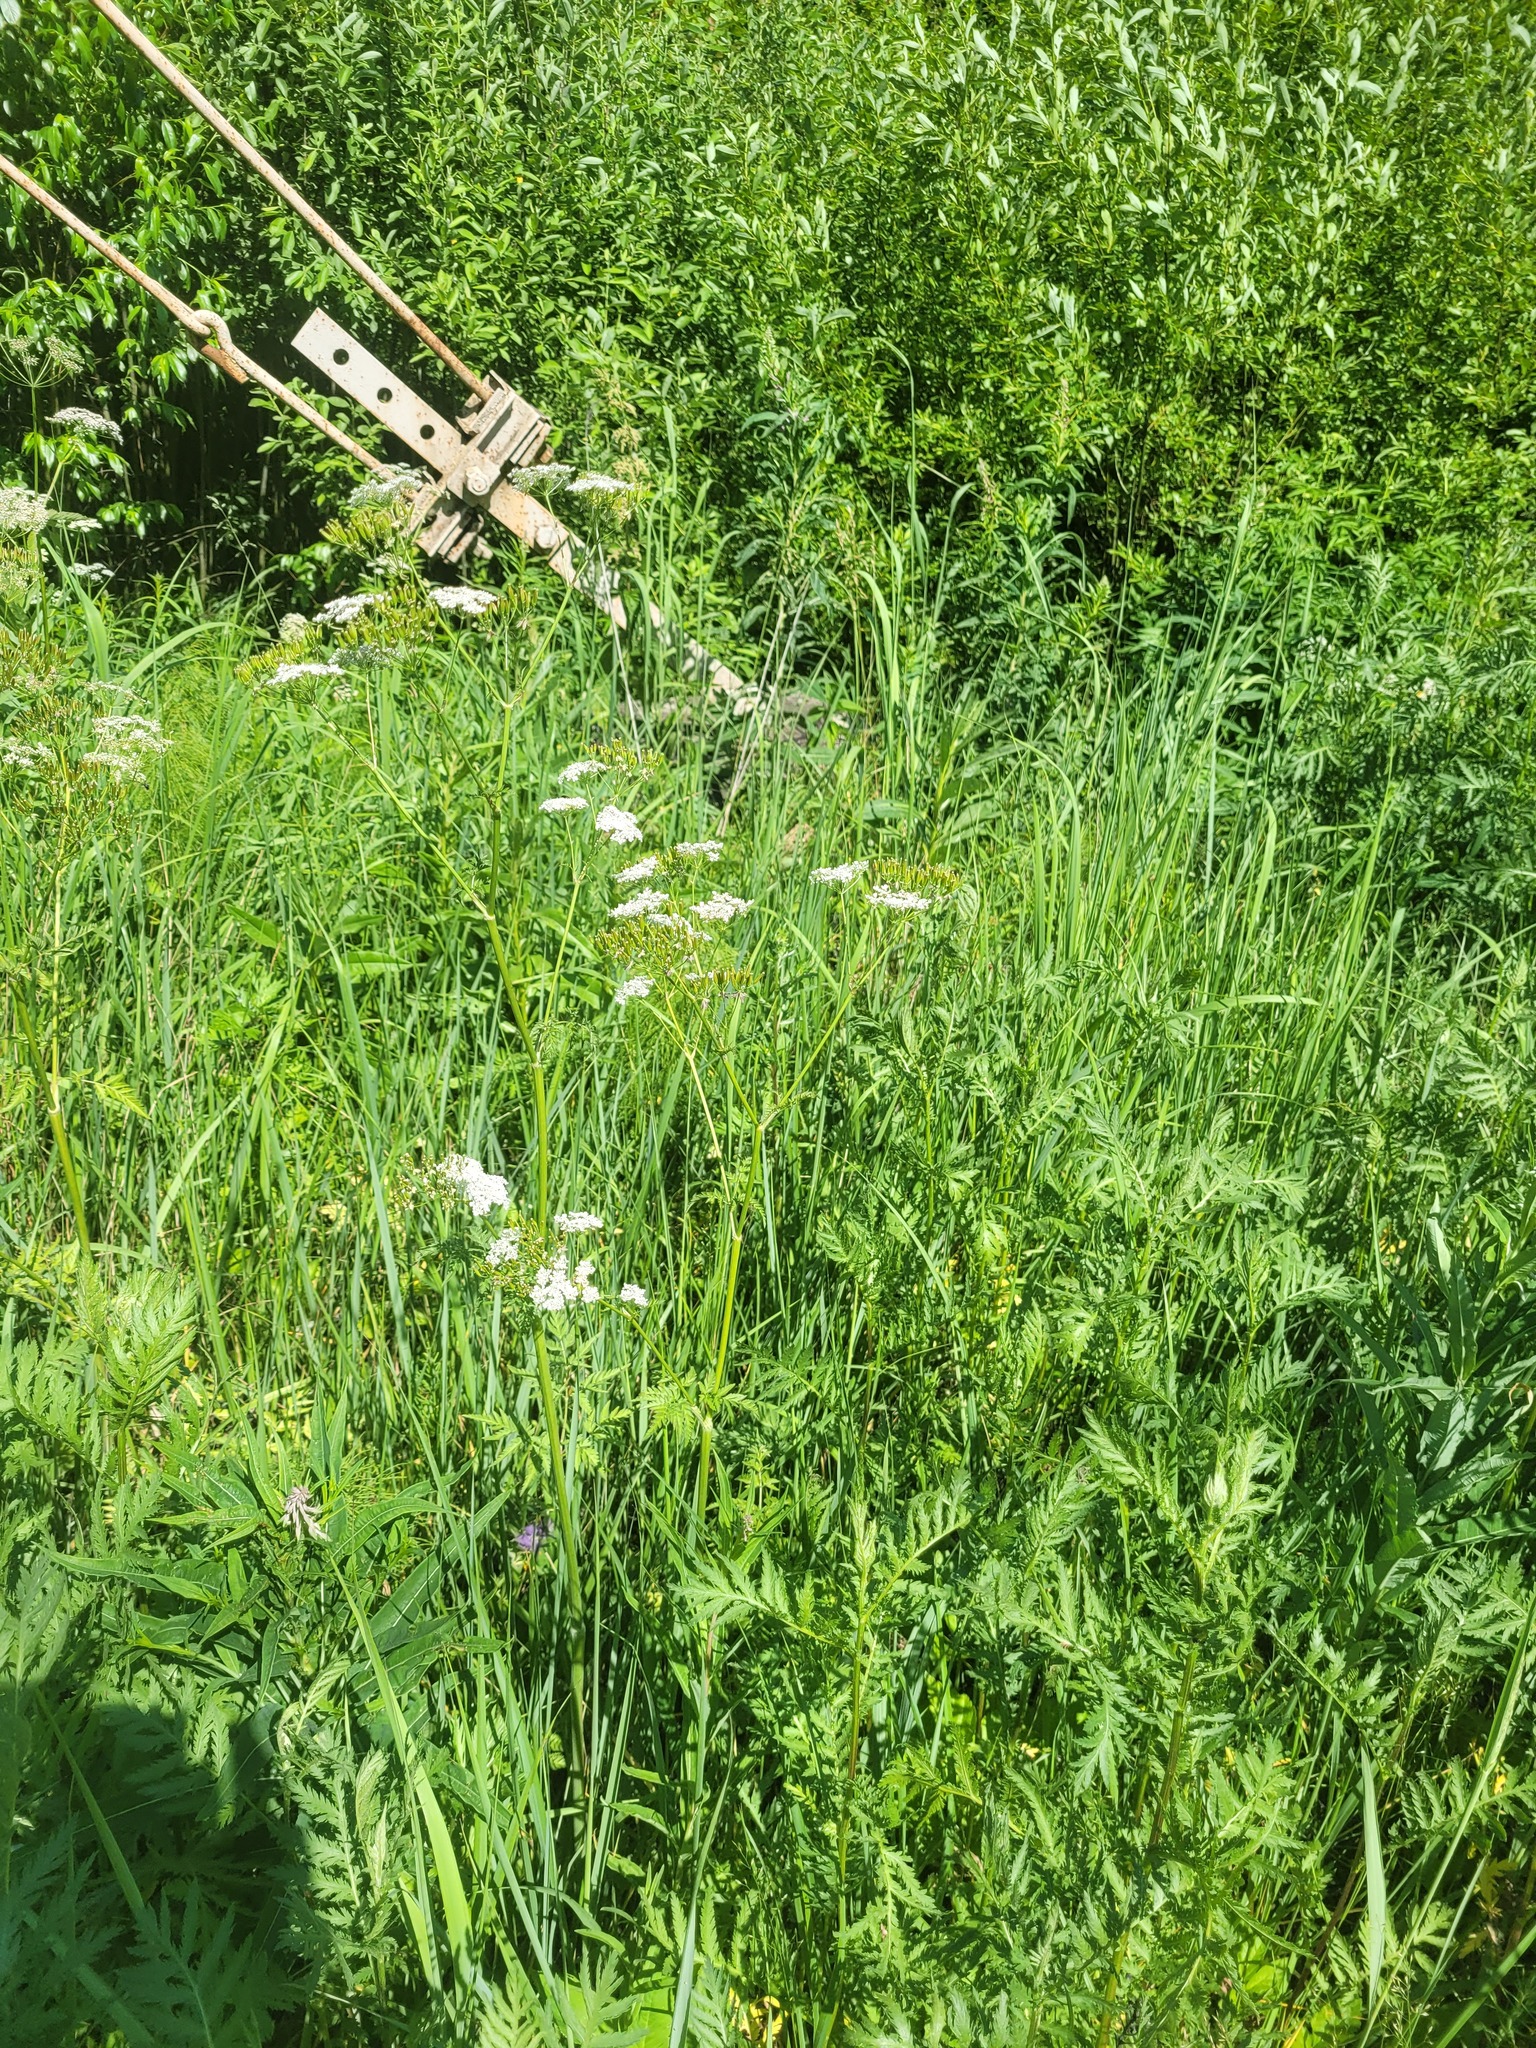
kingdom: Plantae
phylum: Tracheophyta
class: Magnoliopsida
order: Apiales
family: Apiaceae
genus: Anthriscus
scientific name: Anthriscus sylvestris
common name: Cow parsley
